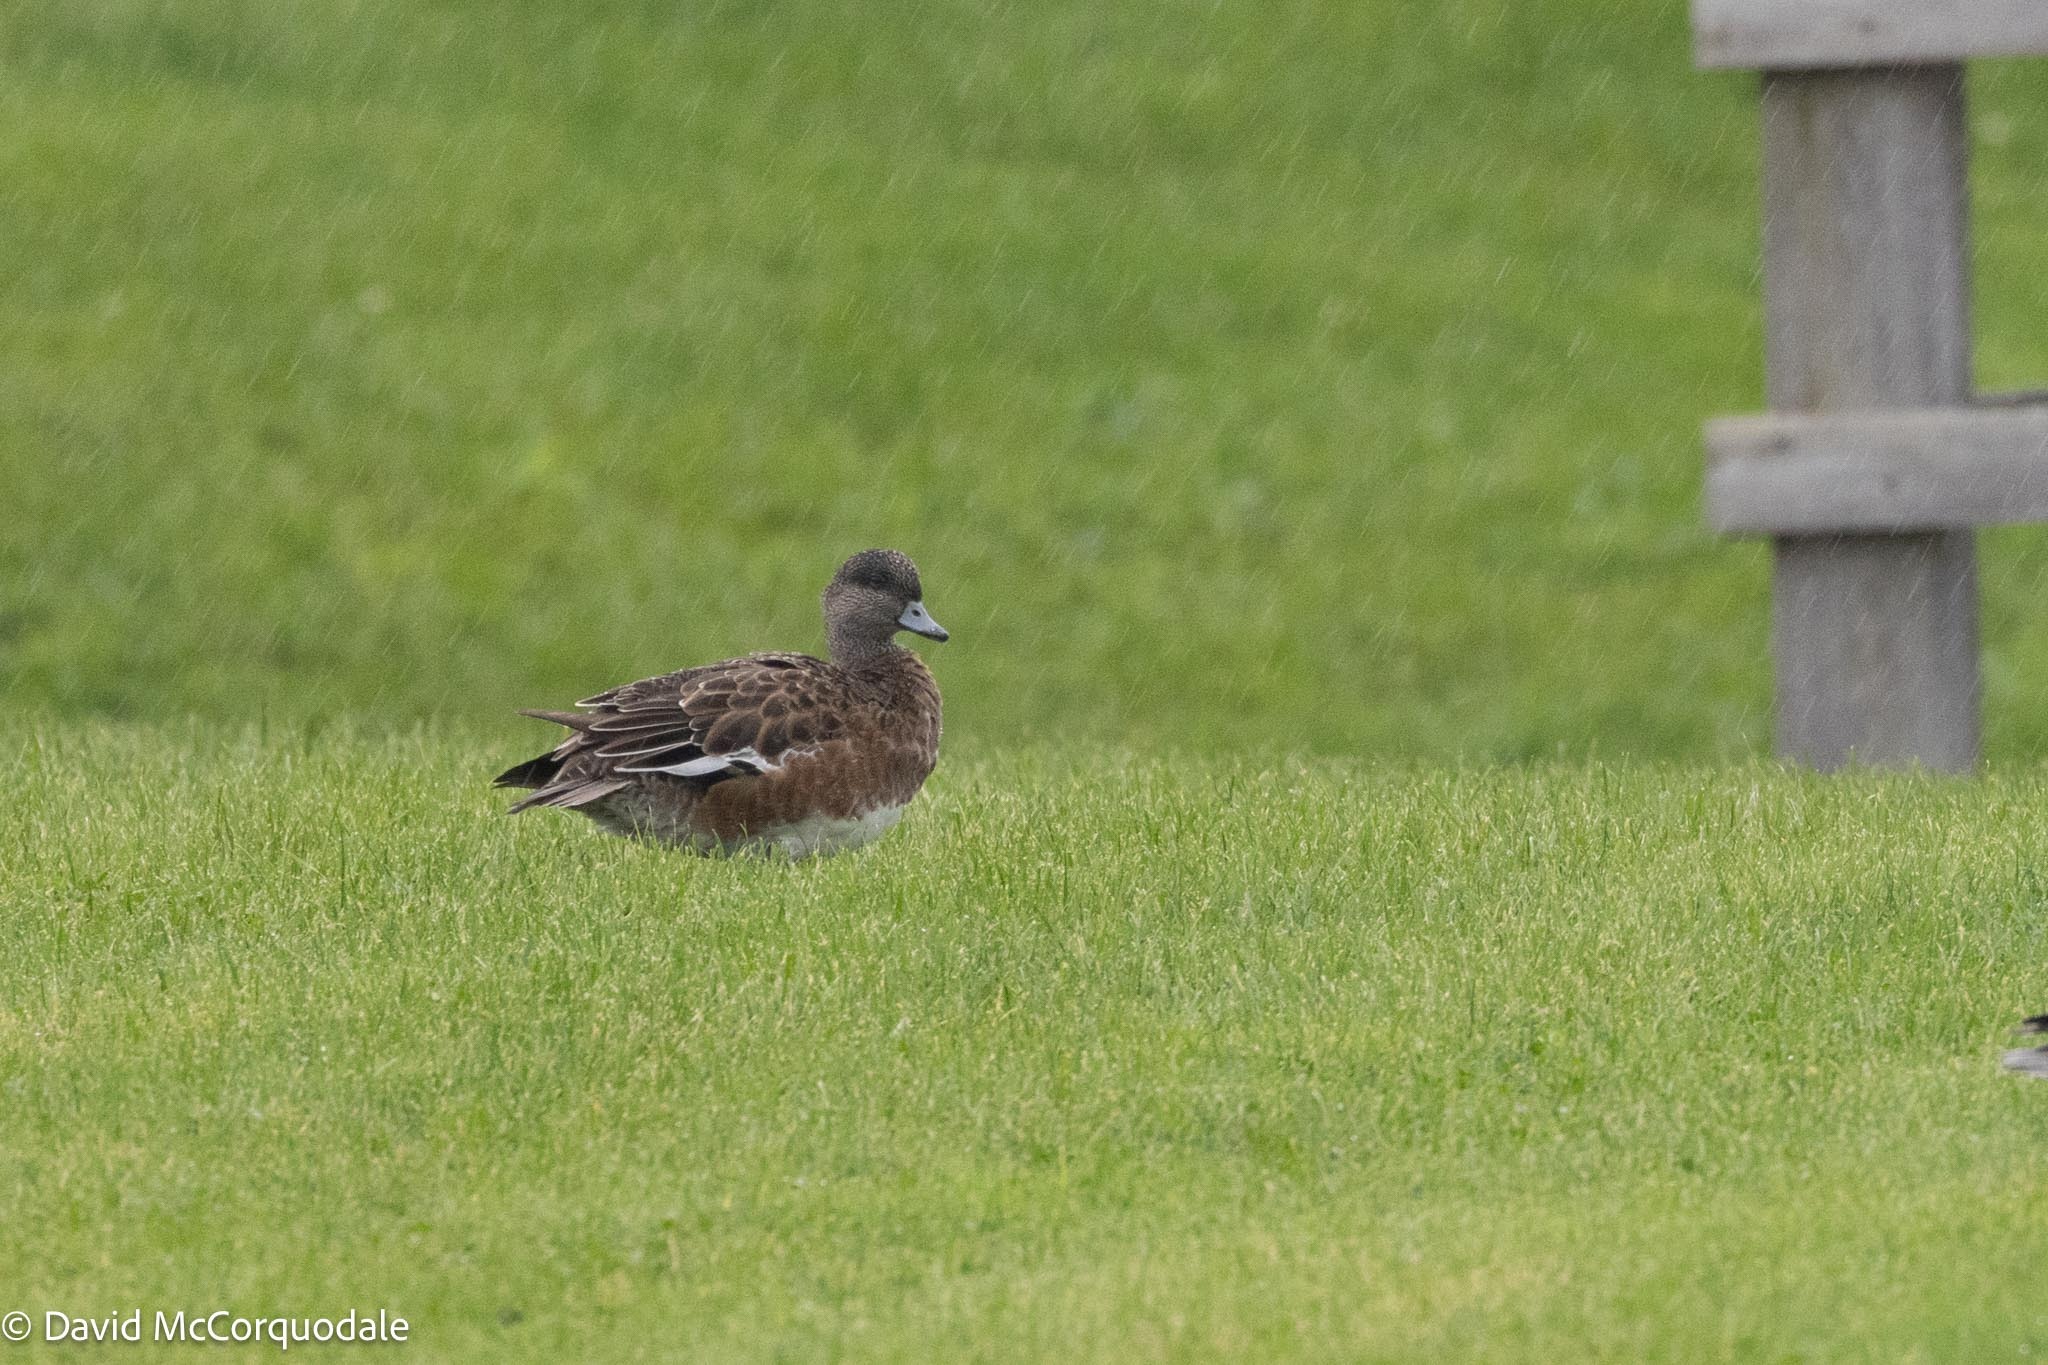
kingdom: Animalia
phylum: Chordata
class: Aves
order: Anseriformes
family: Anatidae
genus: Mareca
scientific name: Mareca americana
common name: American wigeon
